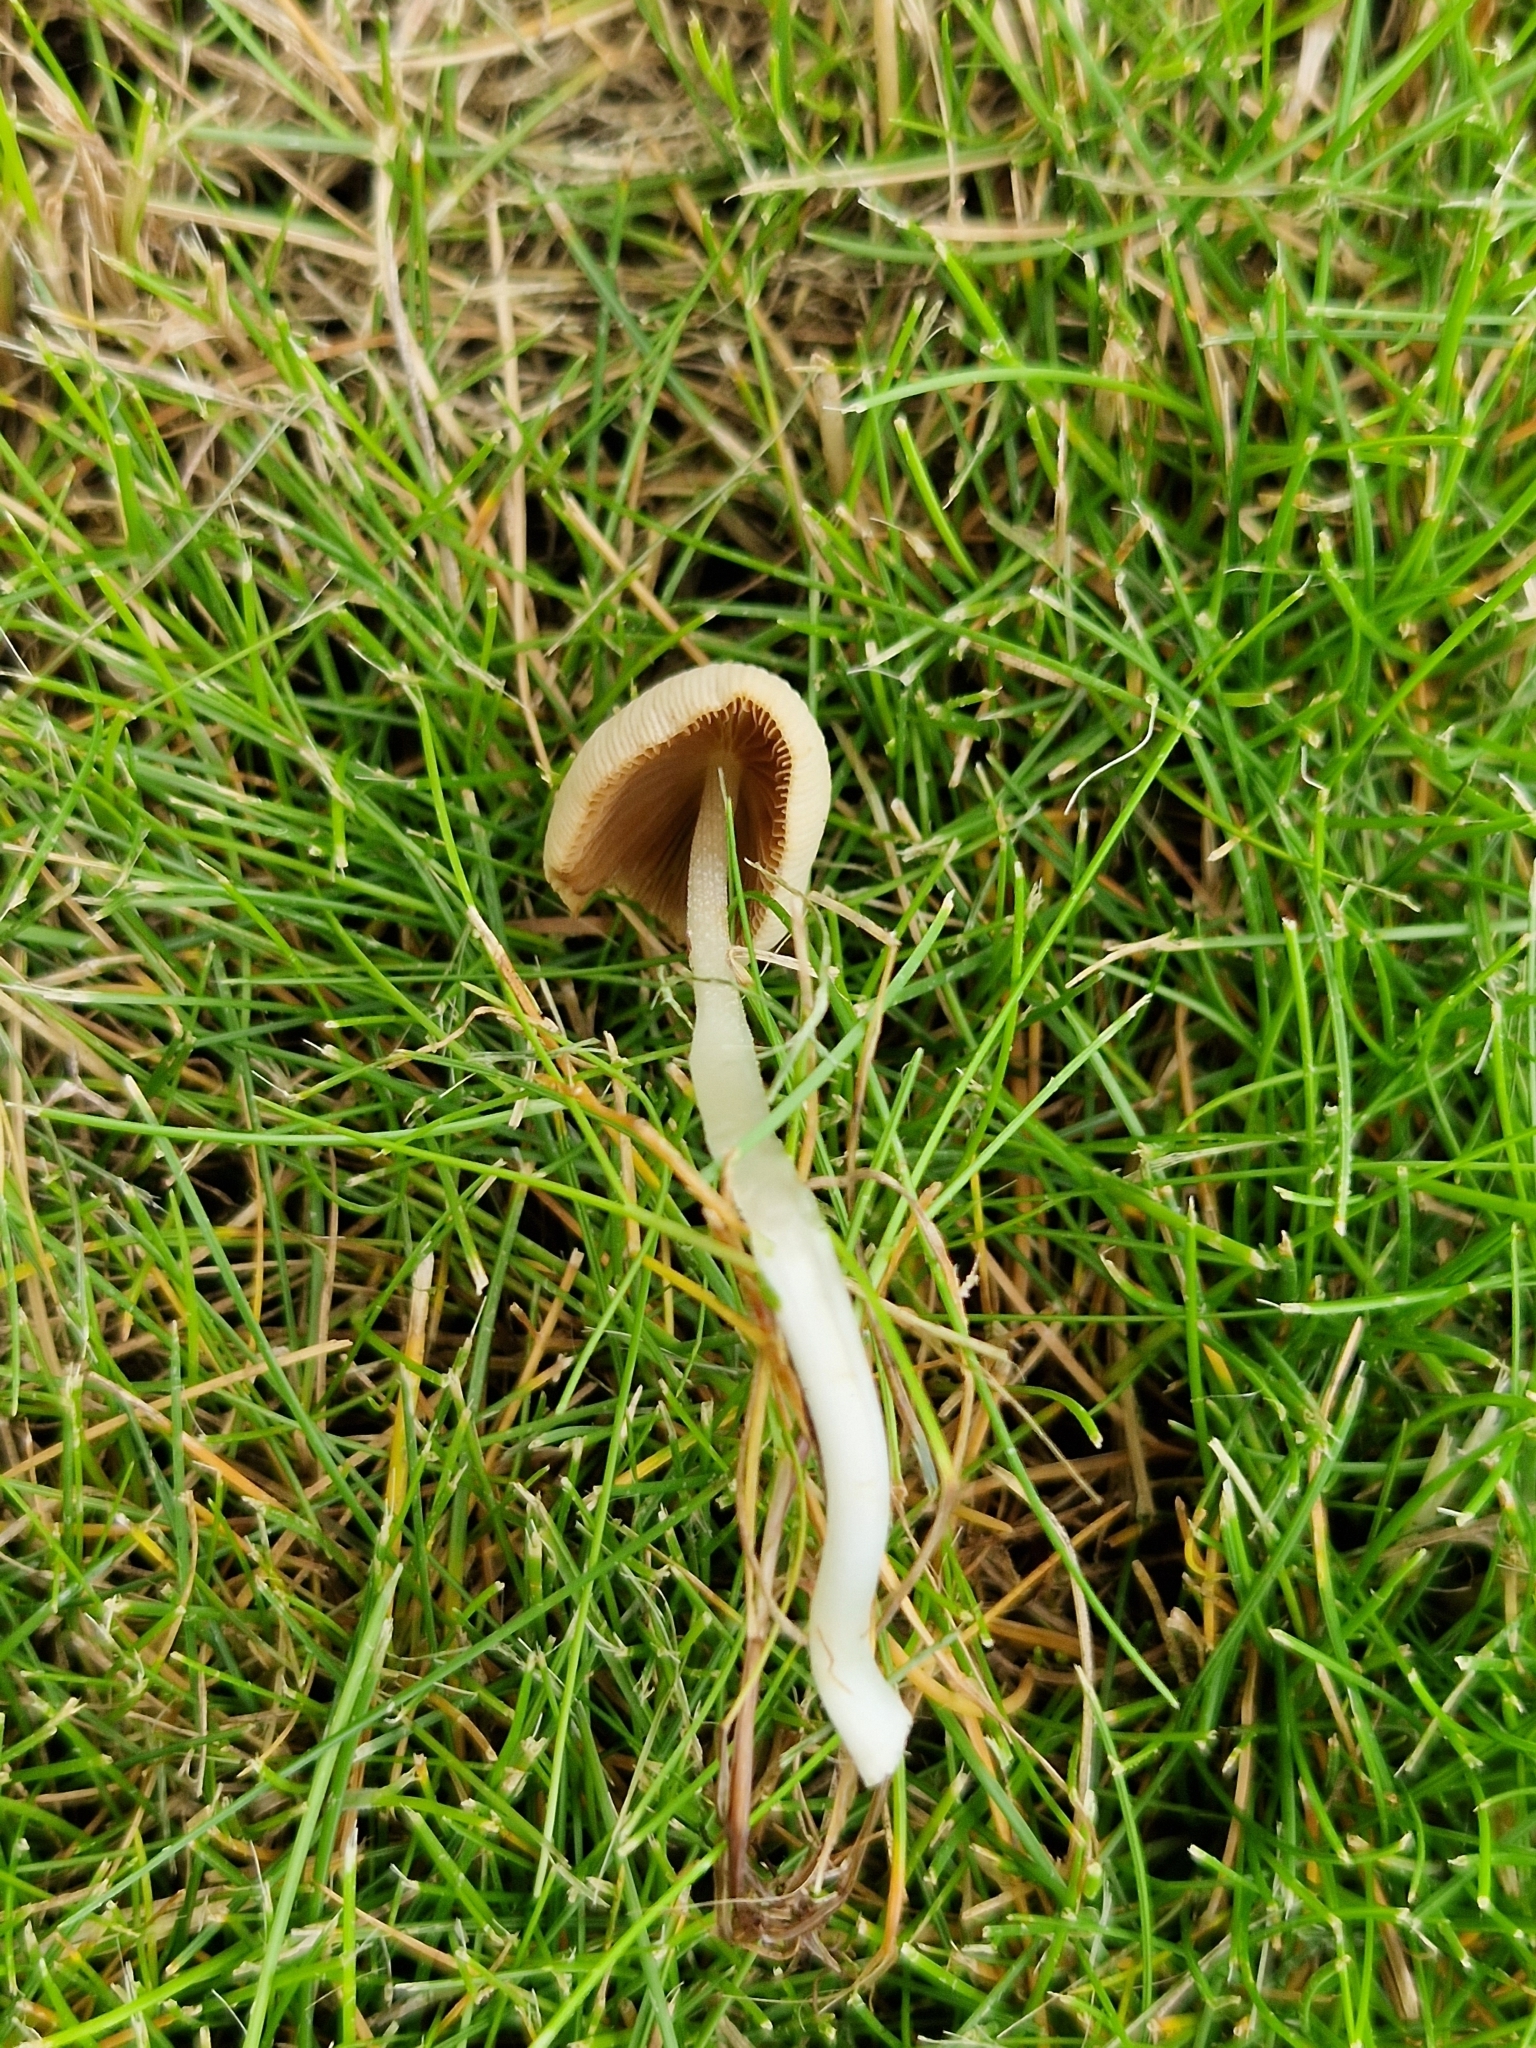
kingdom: Fungi
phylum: Basidiomycota
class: Agaricomycetes
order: Agaricales
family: Bolbitiaceae
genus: Conocybe
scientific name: Conocybe apala
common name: Milky conecap
